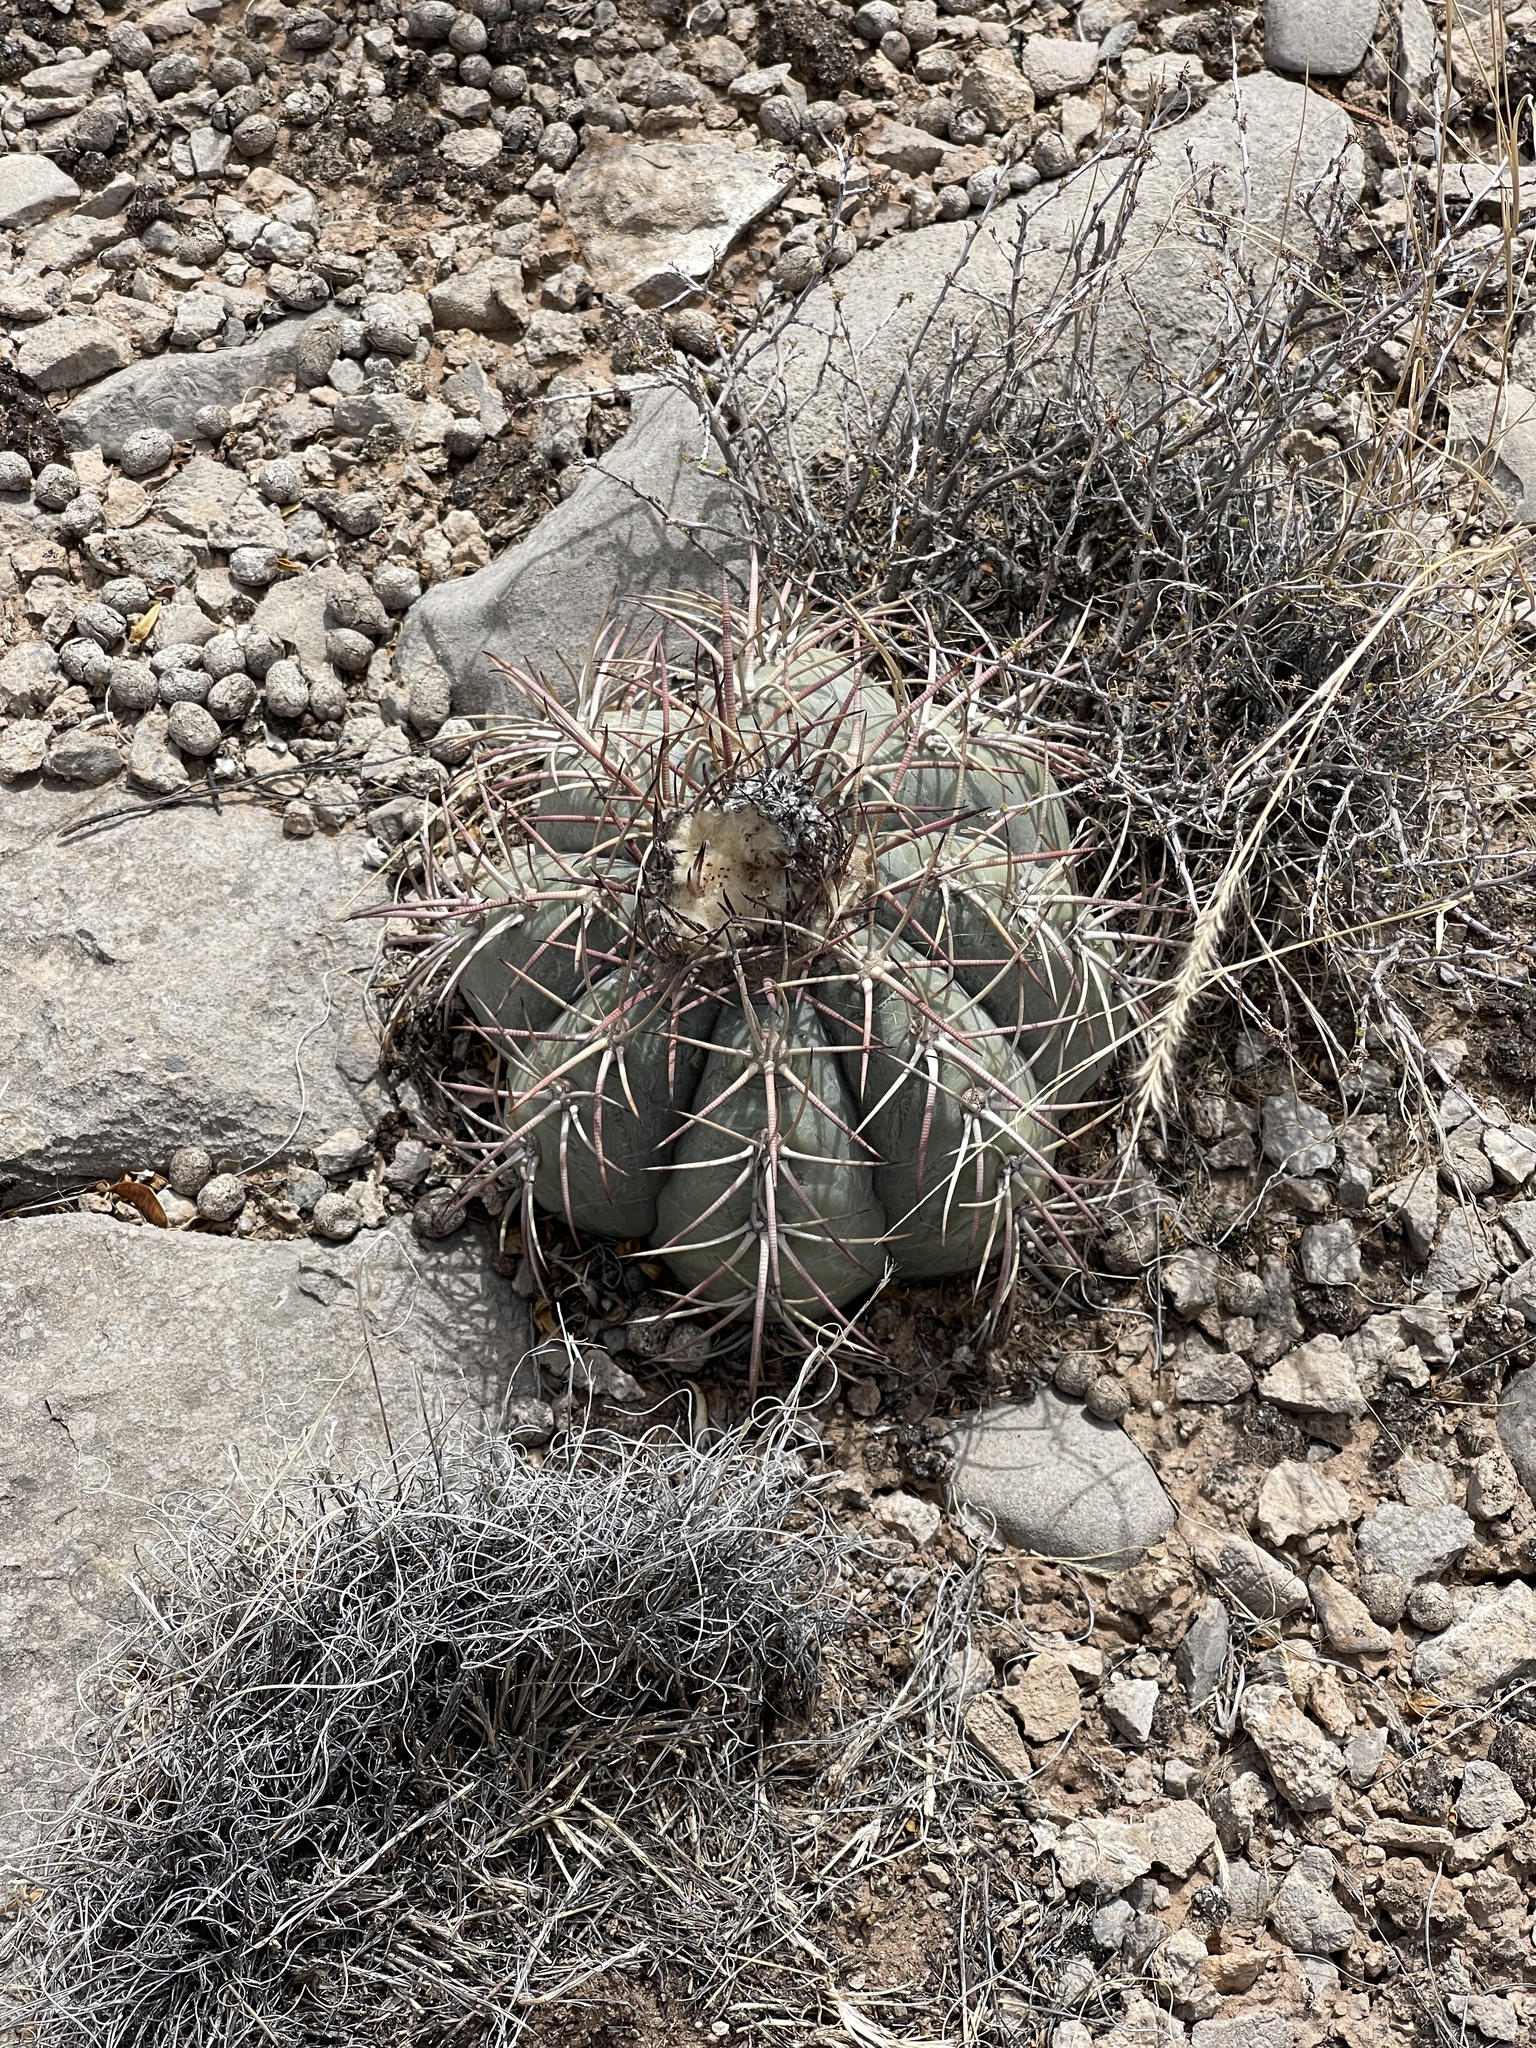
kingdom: Plantae
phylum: Tracheophyta
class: Magnoliopsida
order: Caryophyllales
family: Cactaceae
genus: Echinocactus
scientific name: Echinocactus horizonthalonius
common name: Devilshead
